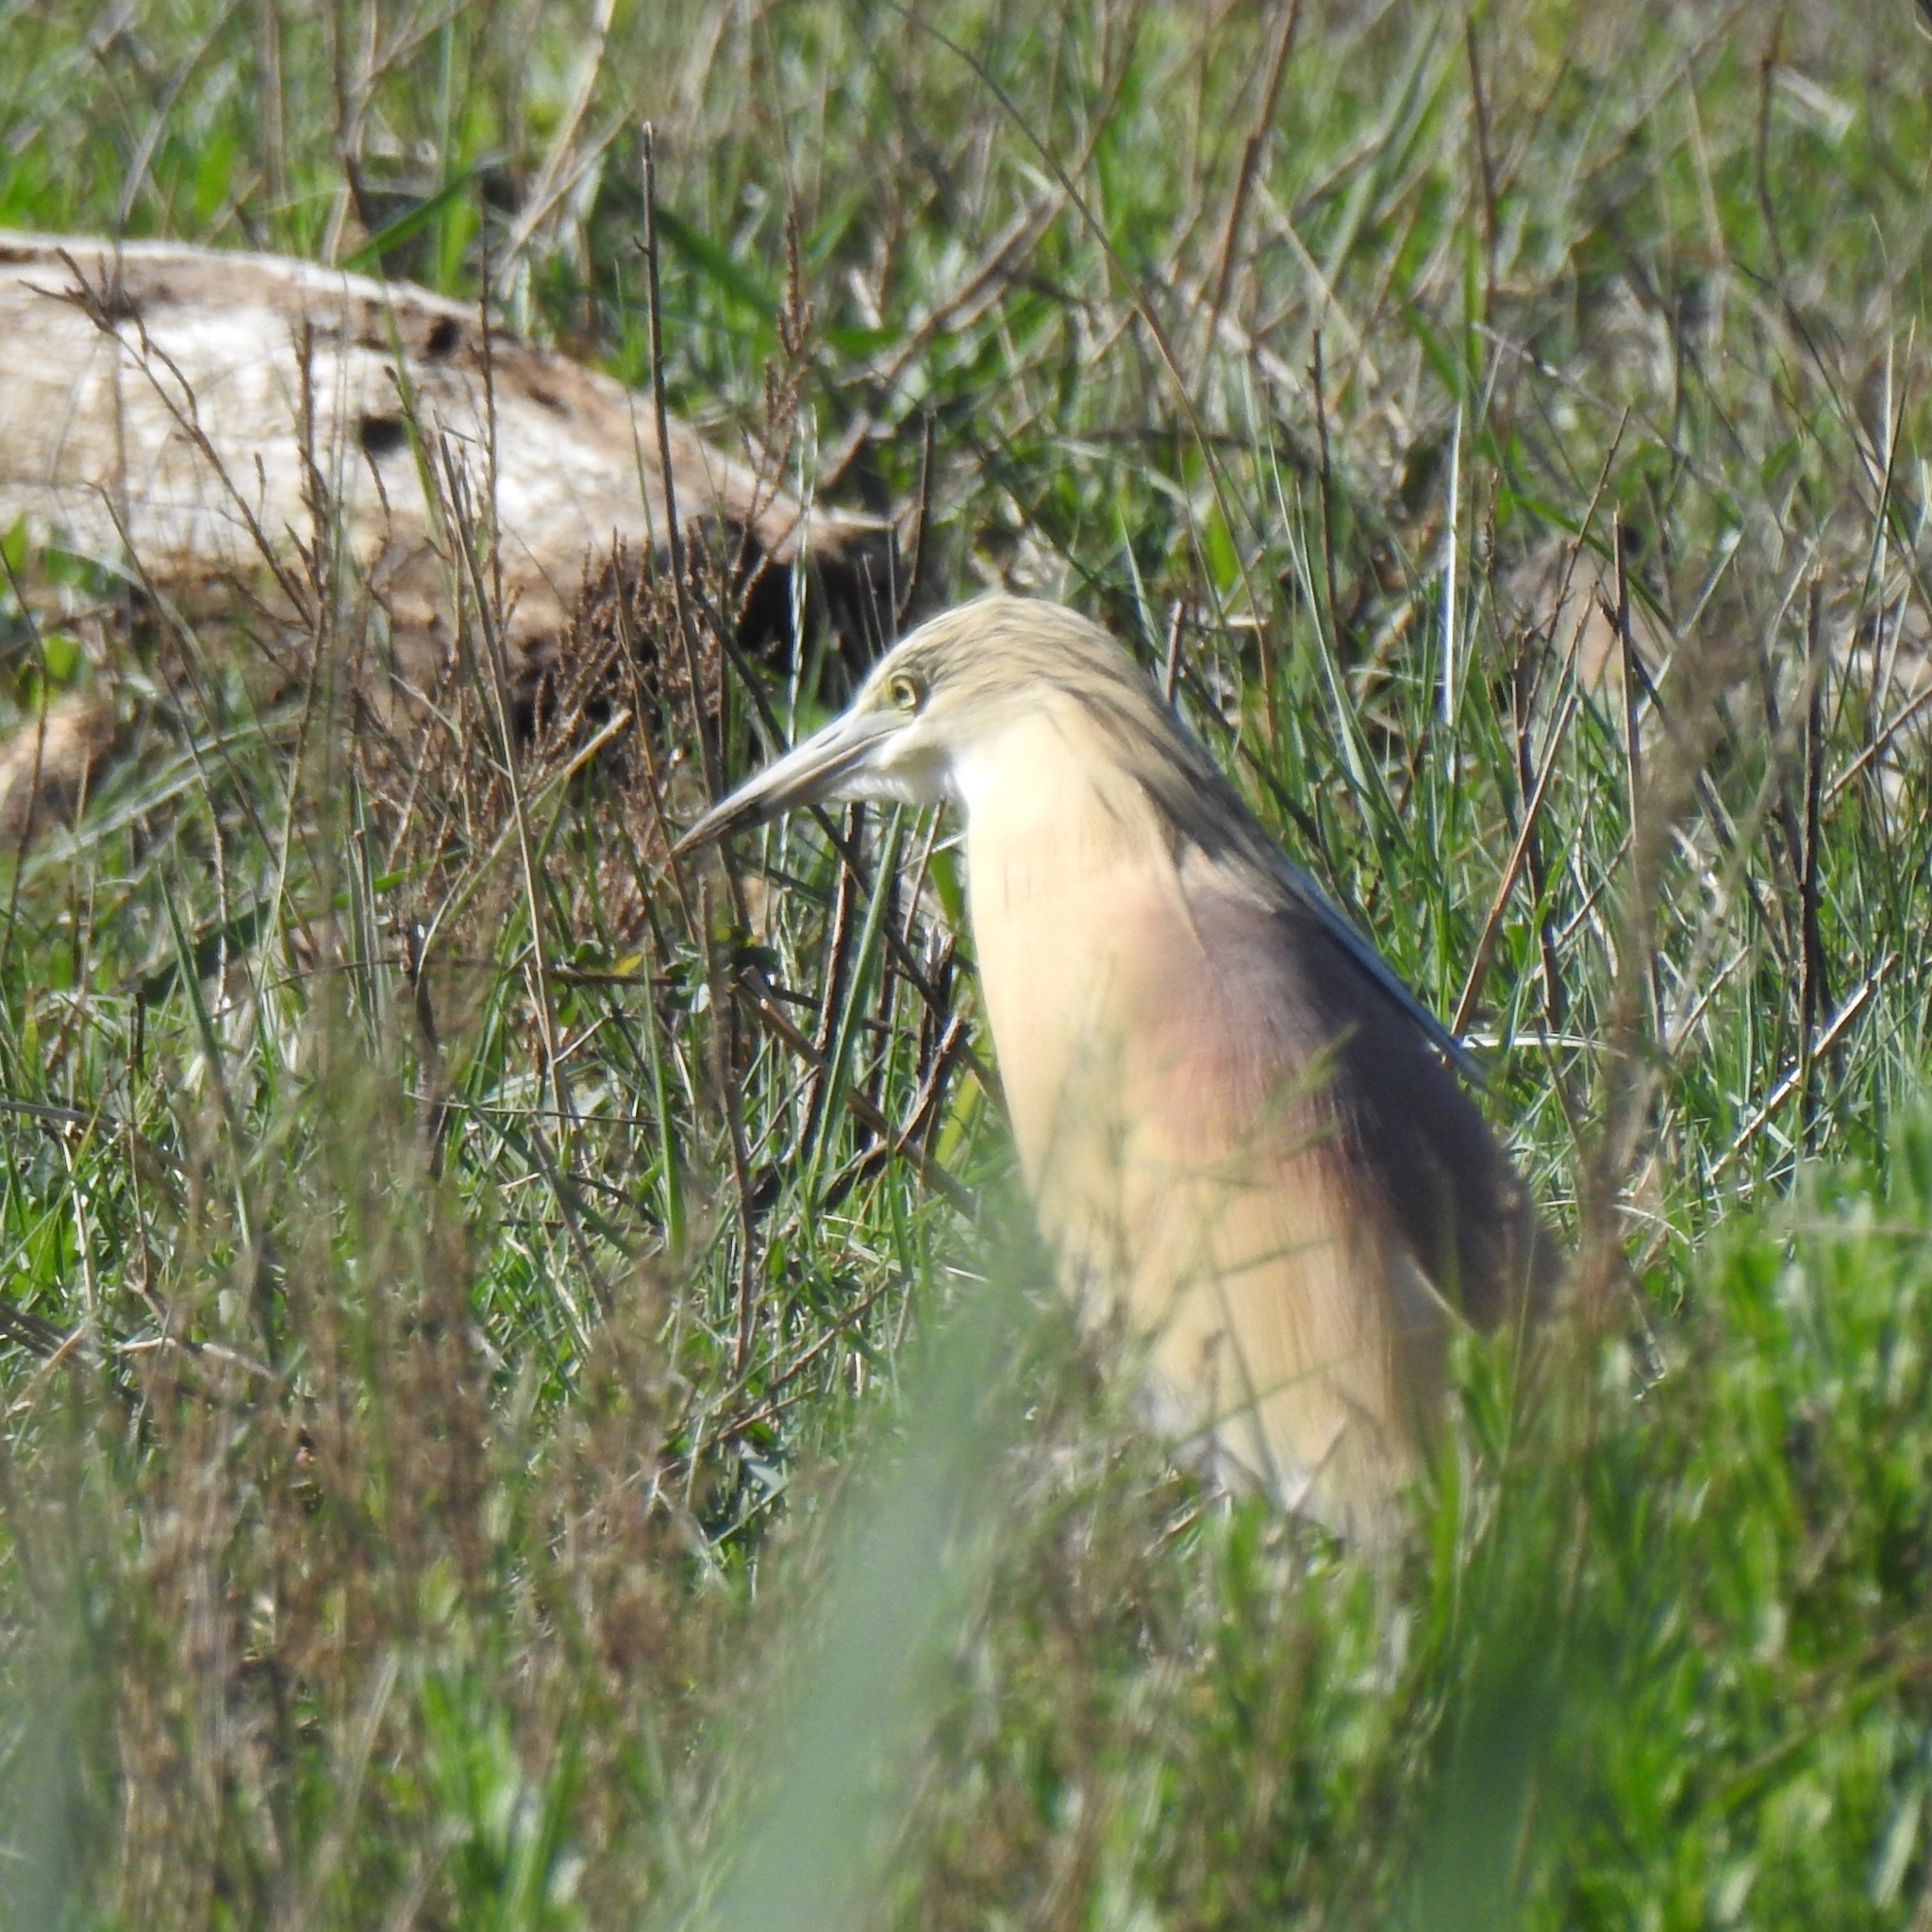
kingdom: Animalia
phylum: Chordata
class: Aves
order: Pelecaniformes
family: Ardeidae
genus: Ardeola
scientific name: Ardeola ralloides
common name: Squacco heron
